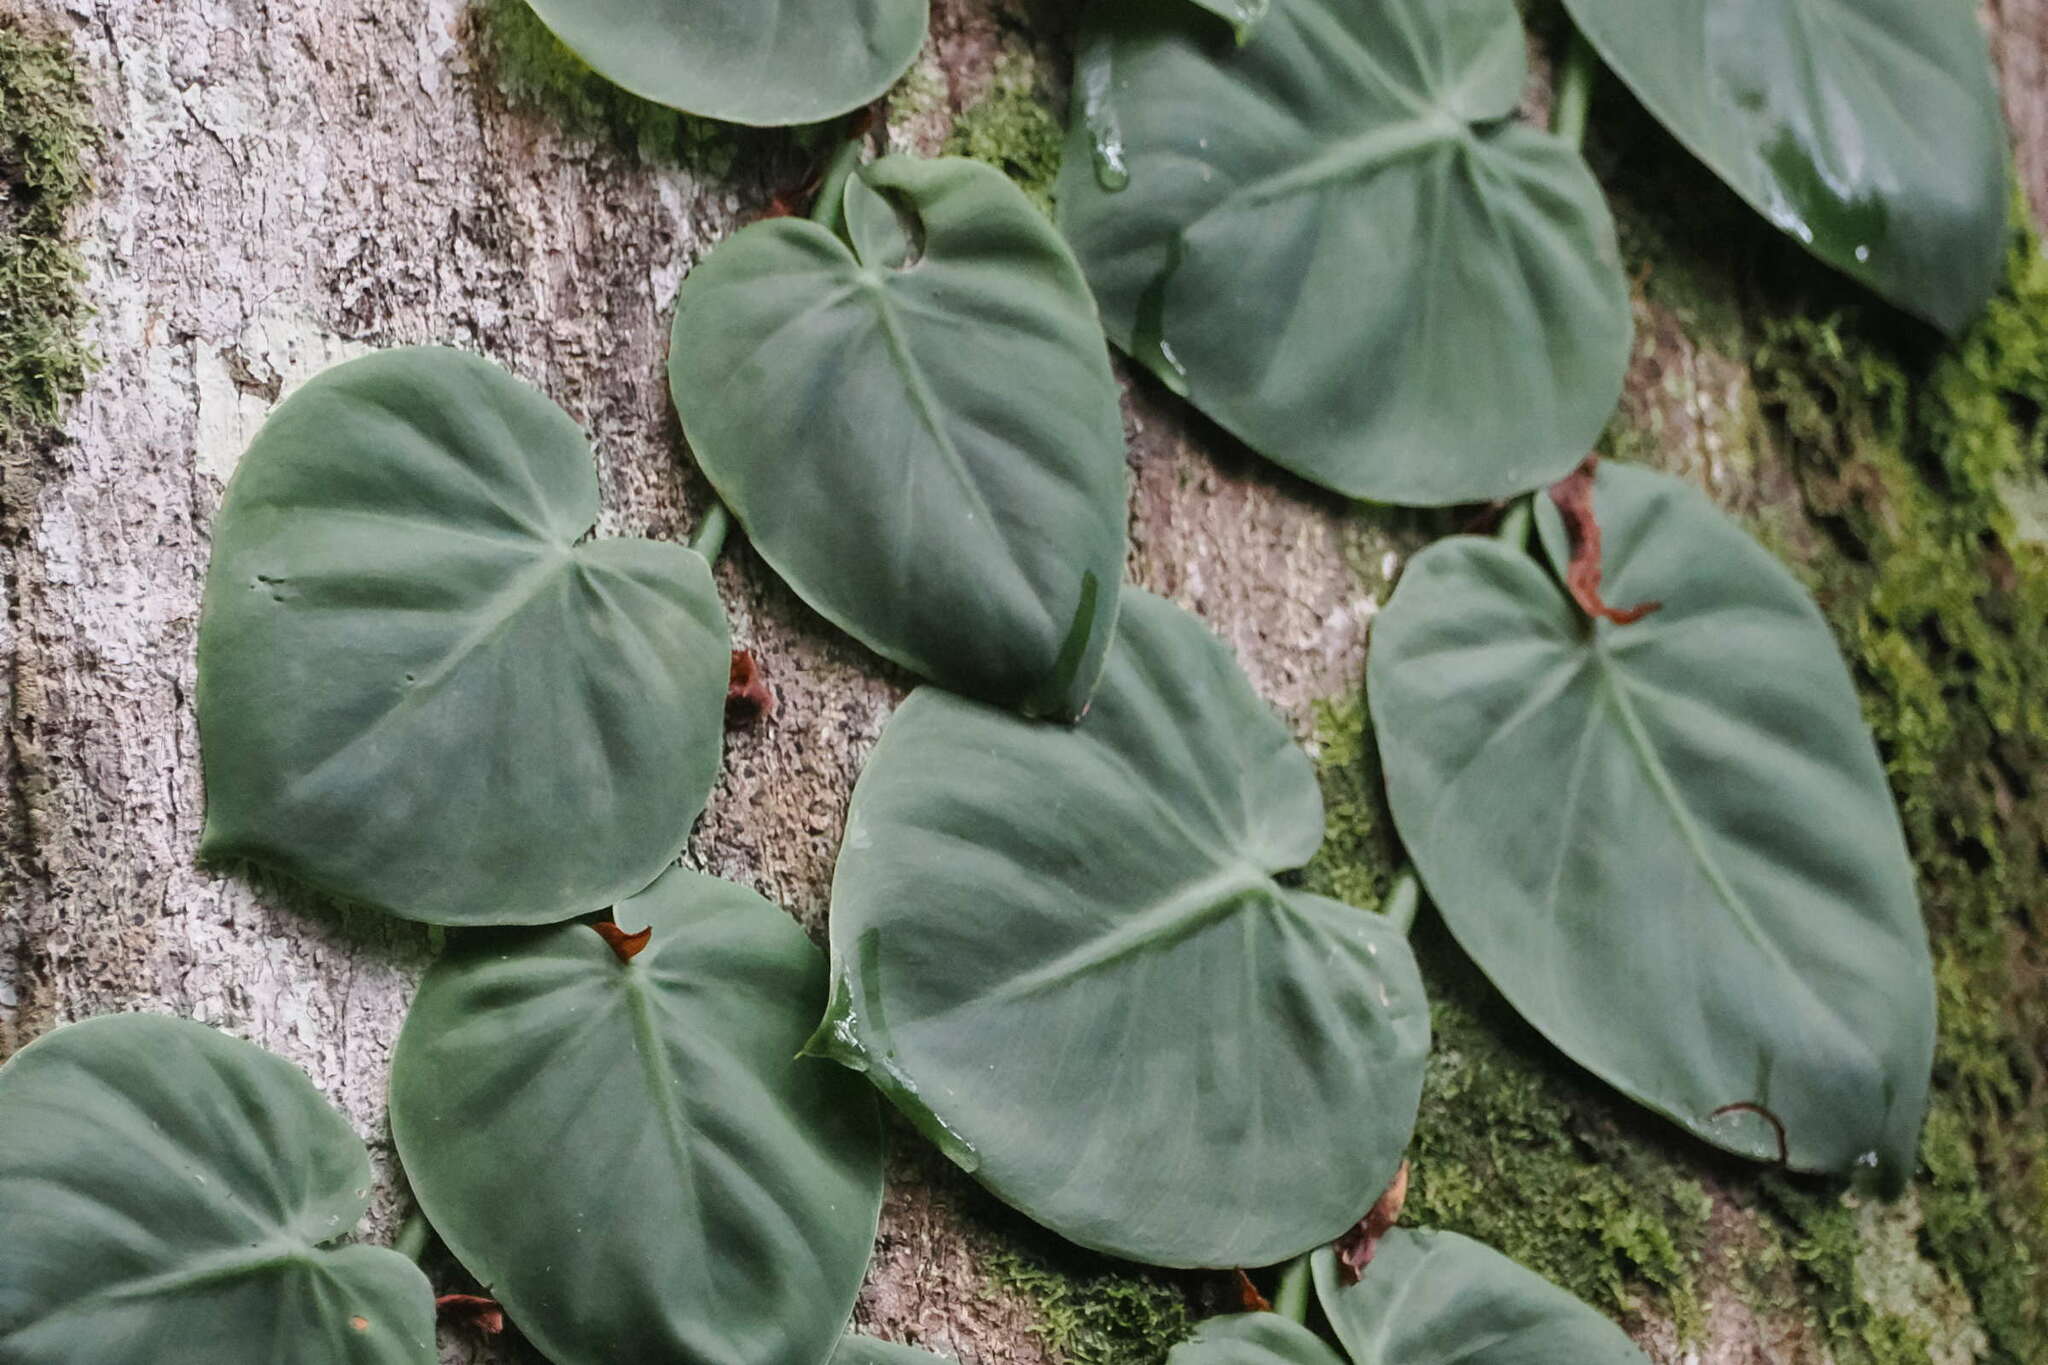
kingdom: Plantae
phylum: Tracheophyta
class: Liliopsida
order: Alismatales
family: Araceae
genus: Philodendron
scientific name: Philodendron hederaceum
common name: Vilevine
